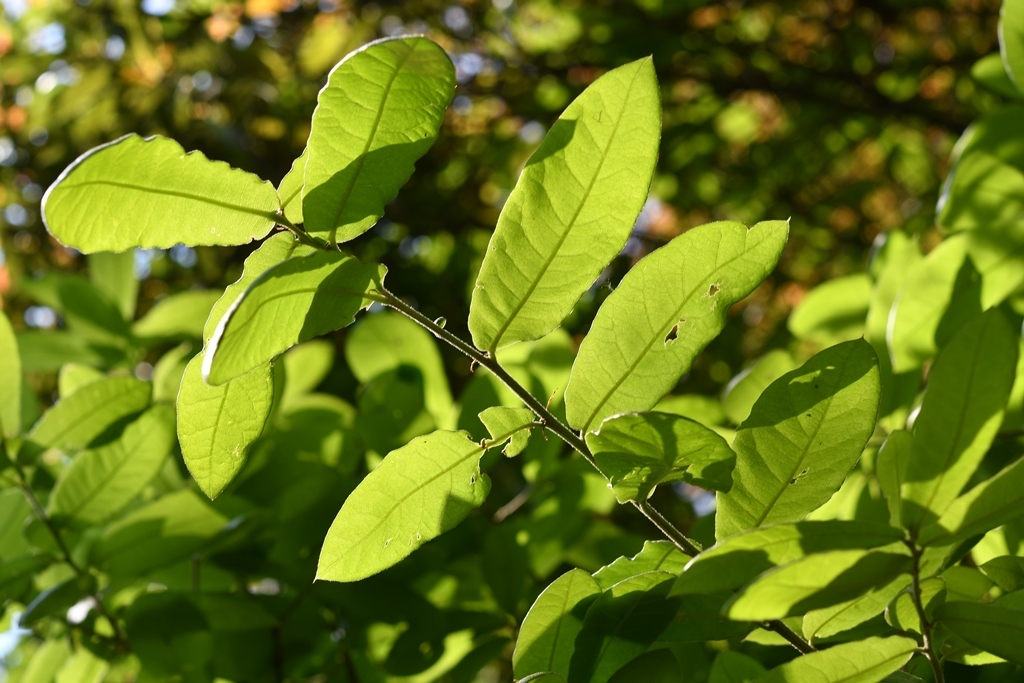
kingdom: Plantae
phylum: Tracheophyta
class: Magnoliopsida
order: Fagales
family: Fagaceae
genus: Quercus
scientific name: Quercus crispipilis
